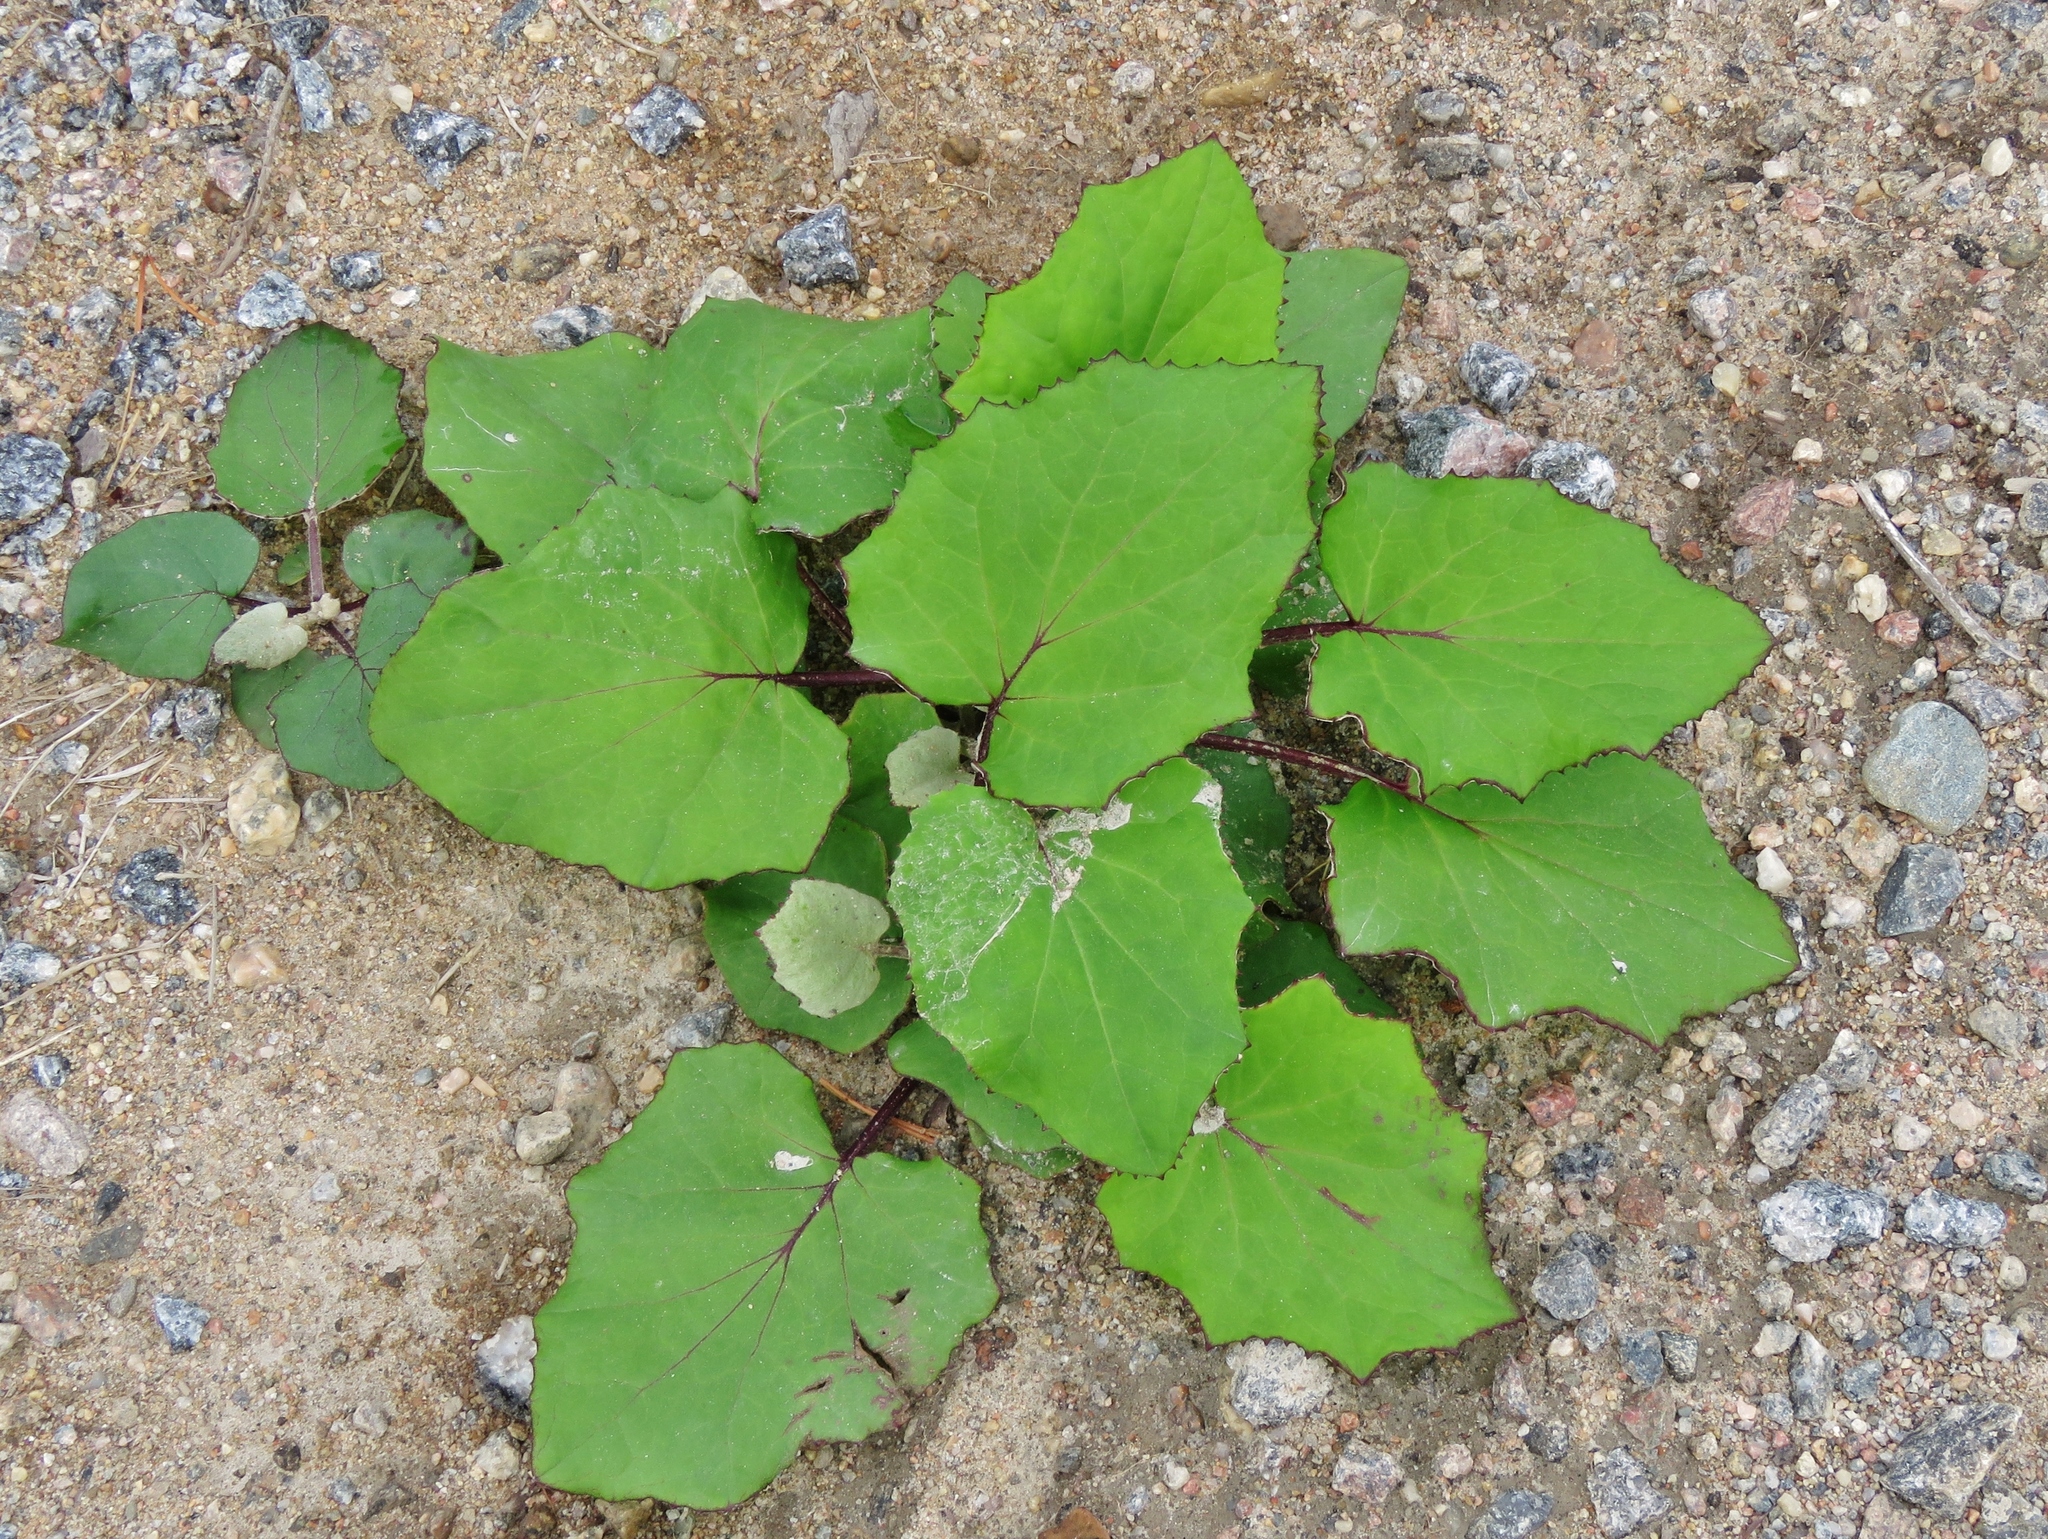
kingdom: Plantae
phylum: Tracheophyta
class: Magnoliopsida
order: Asterales
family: Asteraceae
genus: Tussilago
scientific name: Tussilago farfara
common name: Coltsfoot
